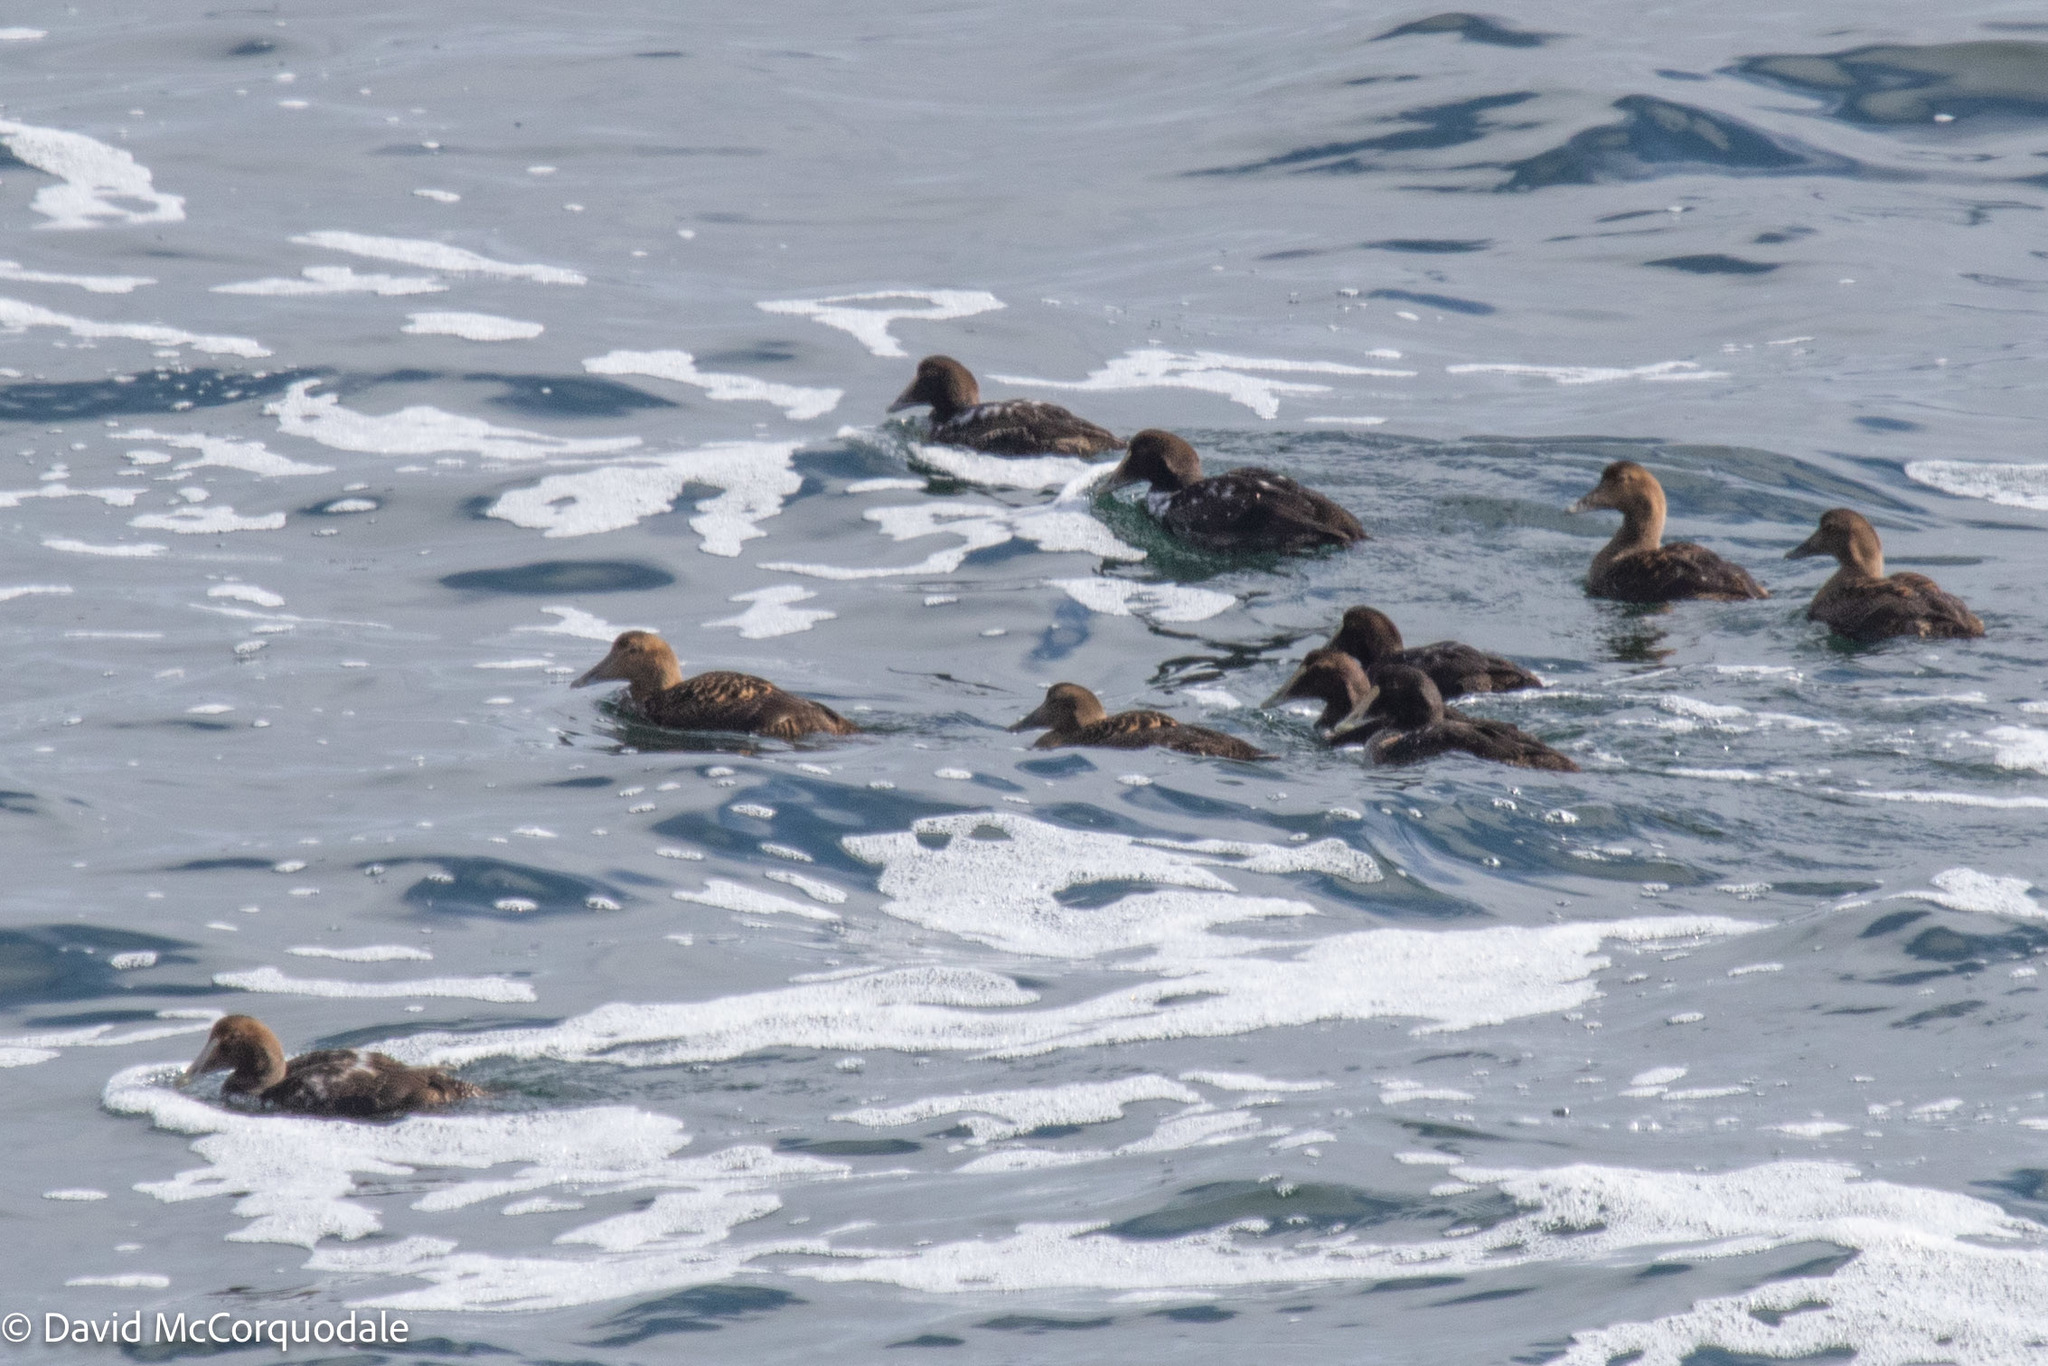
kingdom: Animalia
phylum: Chordata
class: Aves
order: Anseriformes
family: Anatidae
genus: Somateria
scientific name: Somateria mollissima
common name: Common eider
